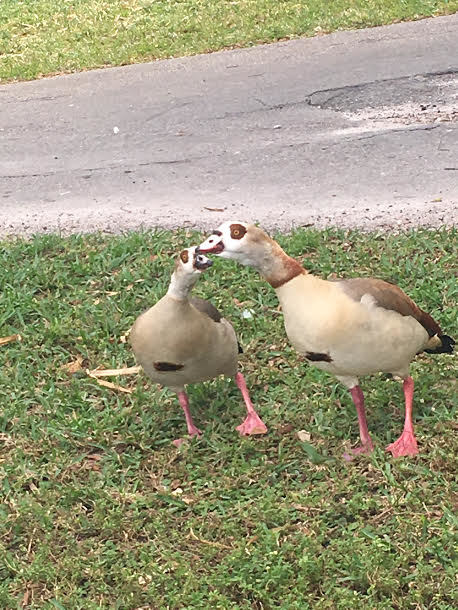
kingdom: Animalia
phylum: Chordata
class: Aves
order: Anseriformes
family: Anatidae
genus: Alopochen
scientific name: Alopochen aegyptiaca
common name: Egyptian goose
